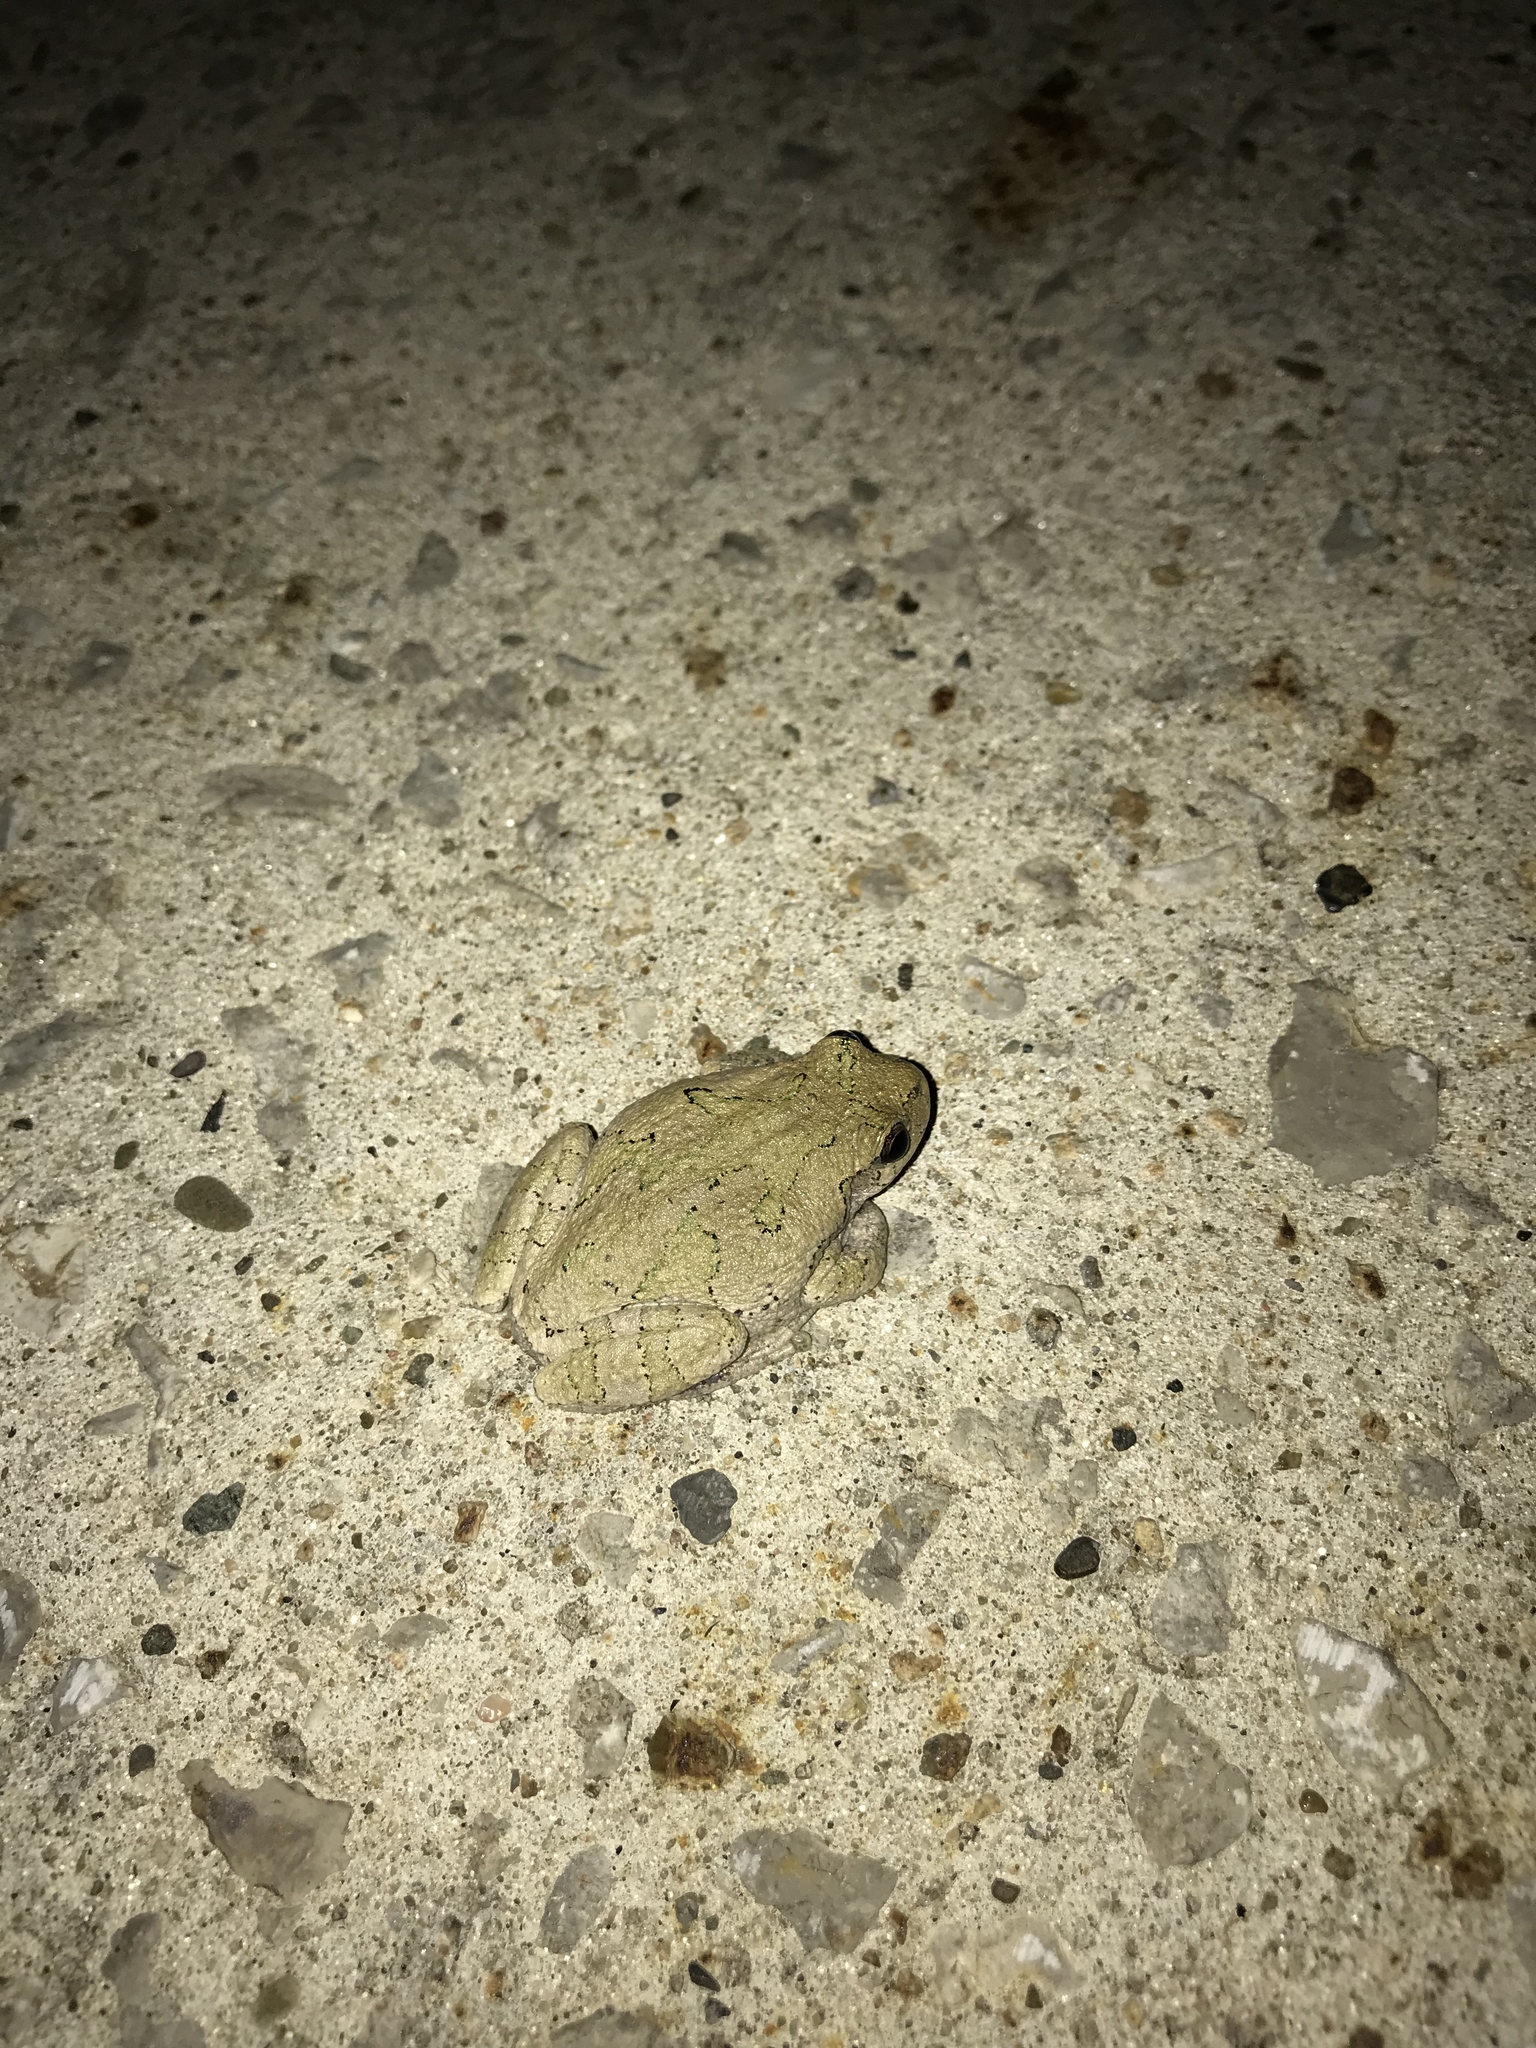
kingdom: Animalia
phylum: Chordata
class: Amphibia
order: Anura
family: Hylidae
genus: Hyla
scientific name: Hyla
